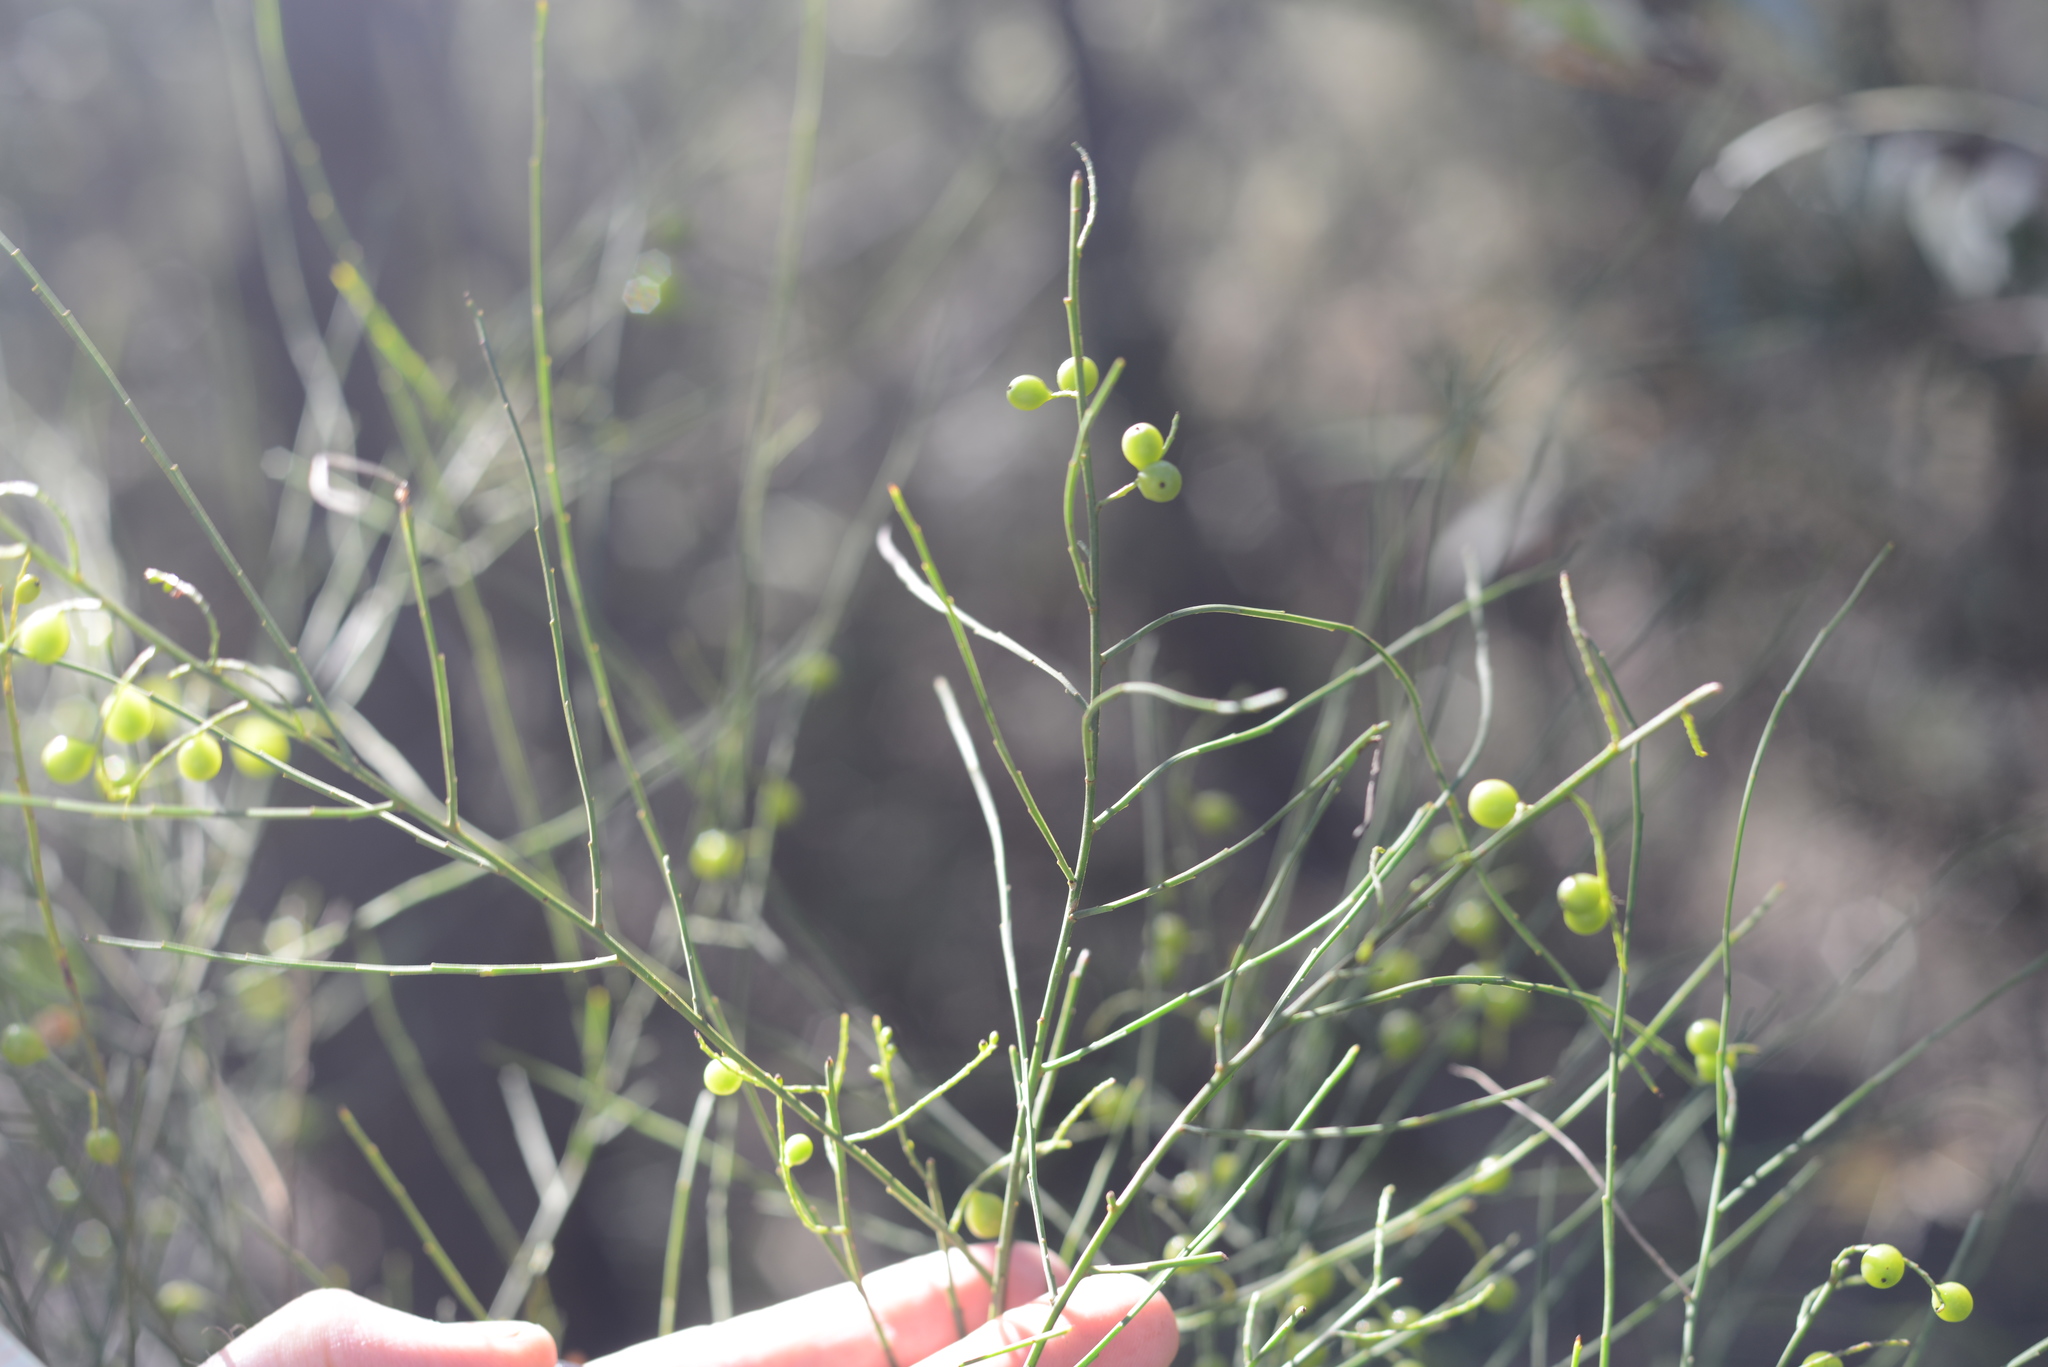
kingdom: Plantae
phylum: Tracheophyta
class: Magnoliopsida
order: Santalales
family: Amphorogynaceae
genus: Leptomeria
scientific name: Leptomeria acida
